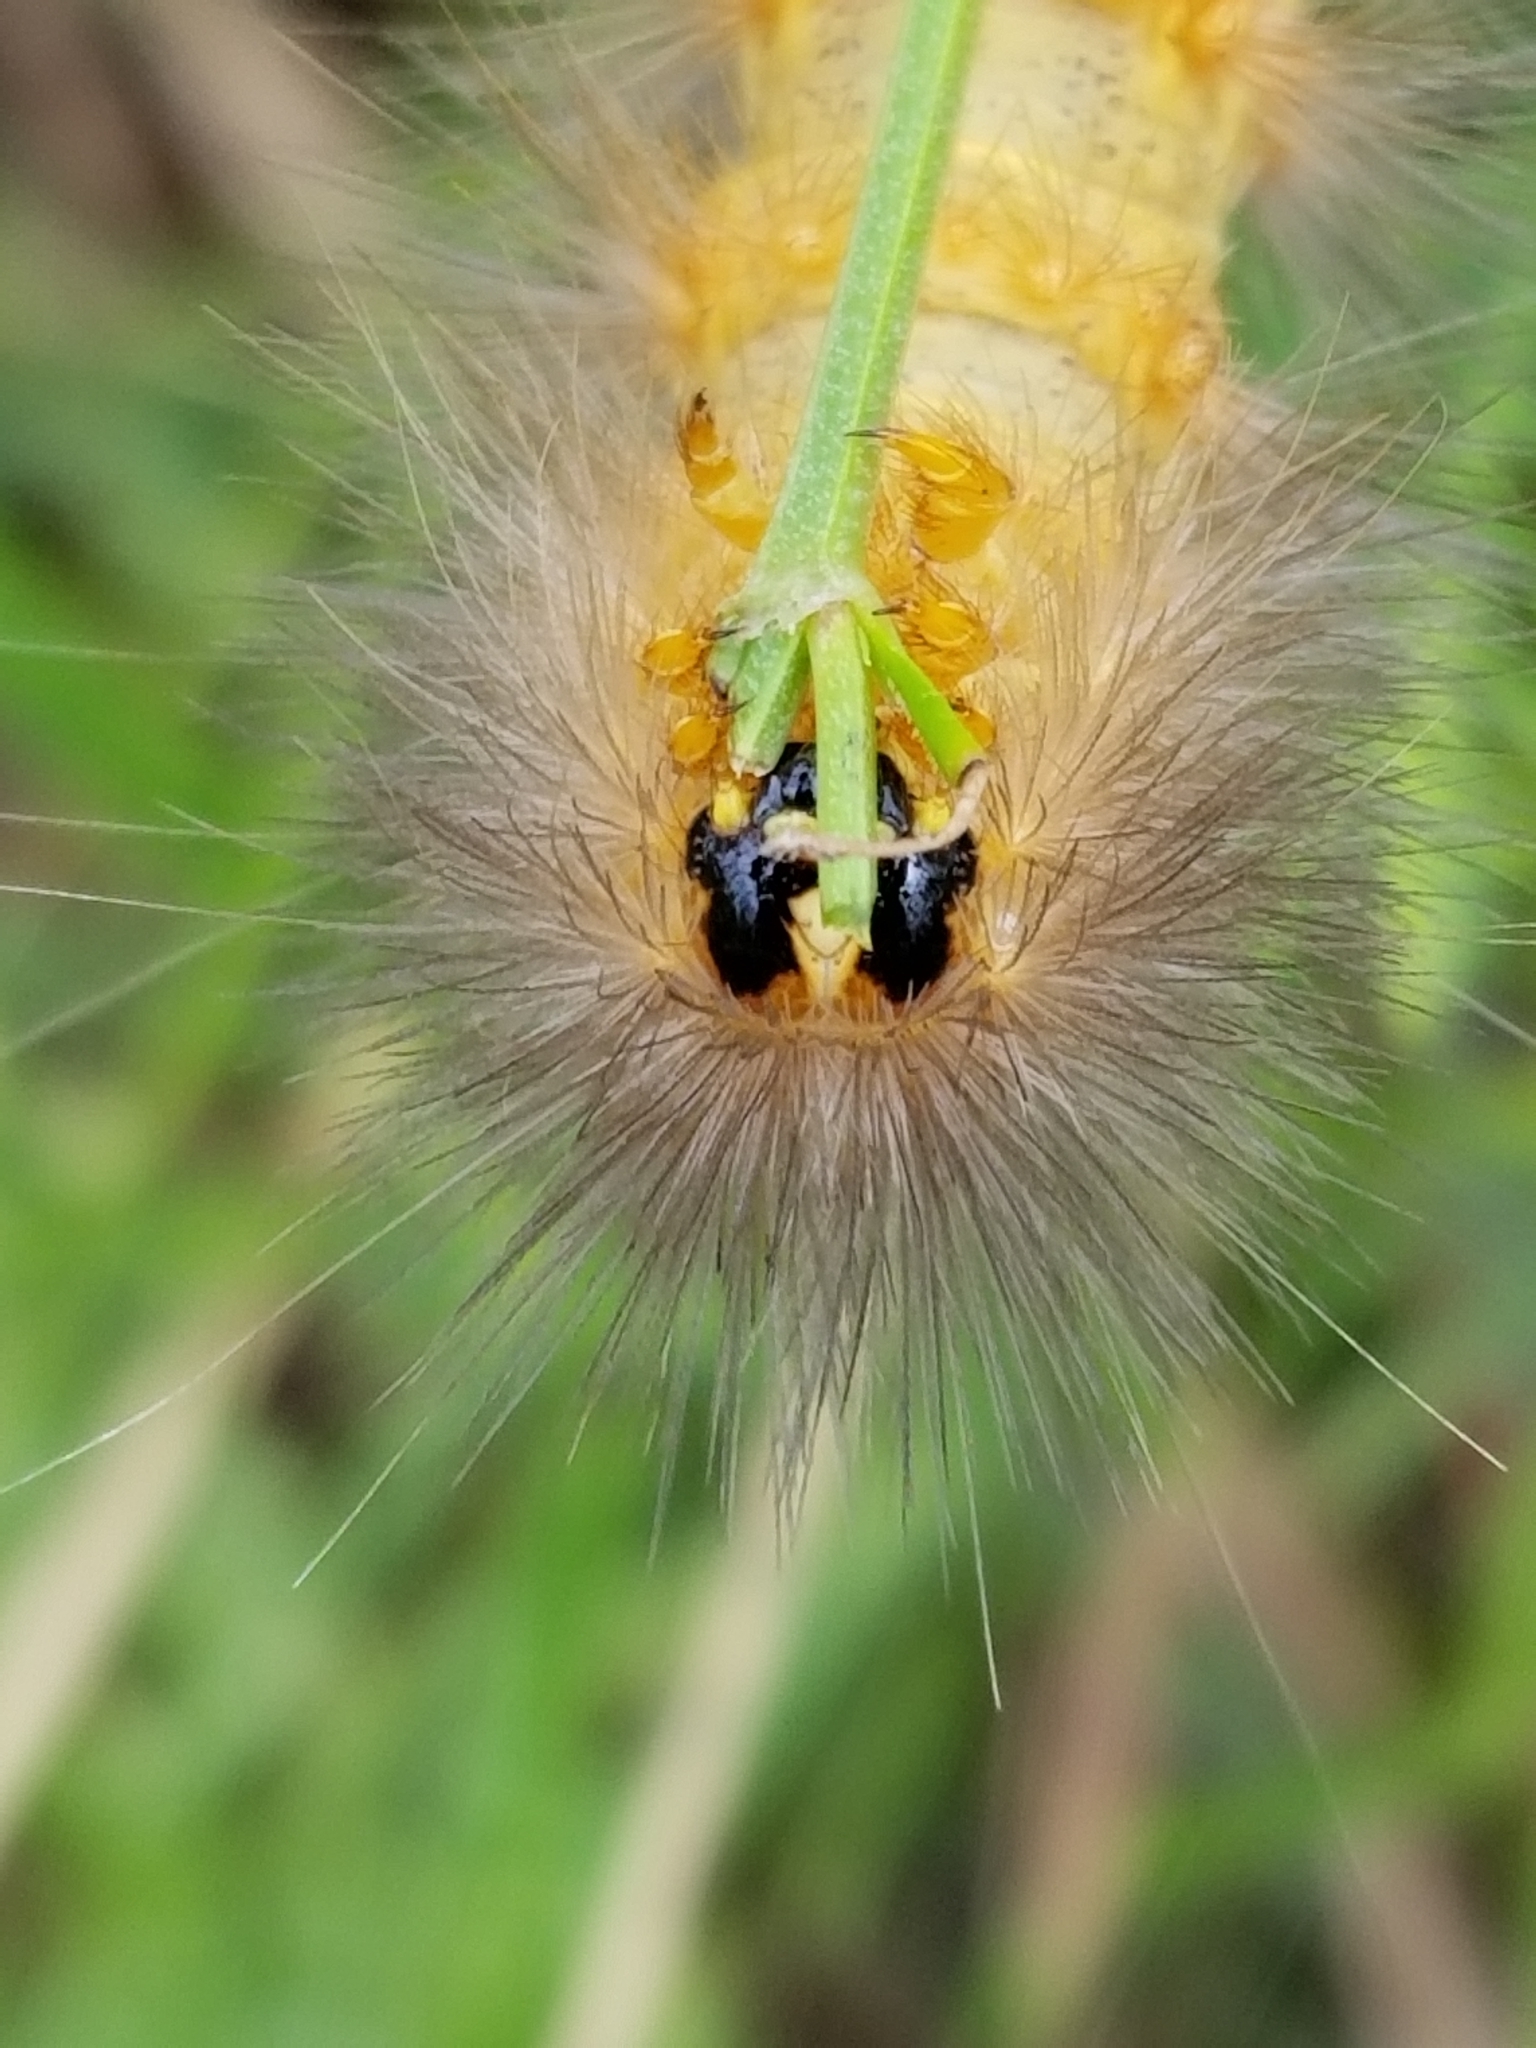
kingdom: Animalia
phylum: Arthropoda
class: Insecta
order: Lepidoptera
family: Erebidae
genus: Estigmene
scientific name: Estigmene acrea
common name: Salt marsh moth
